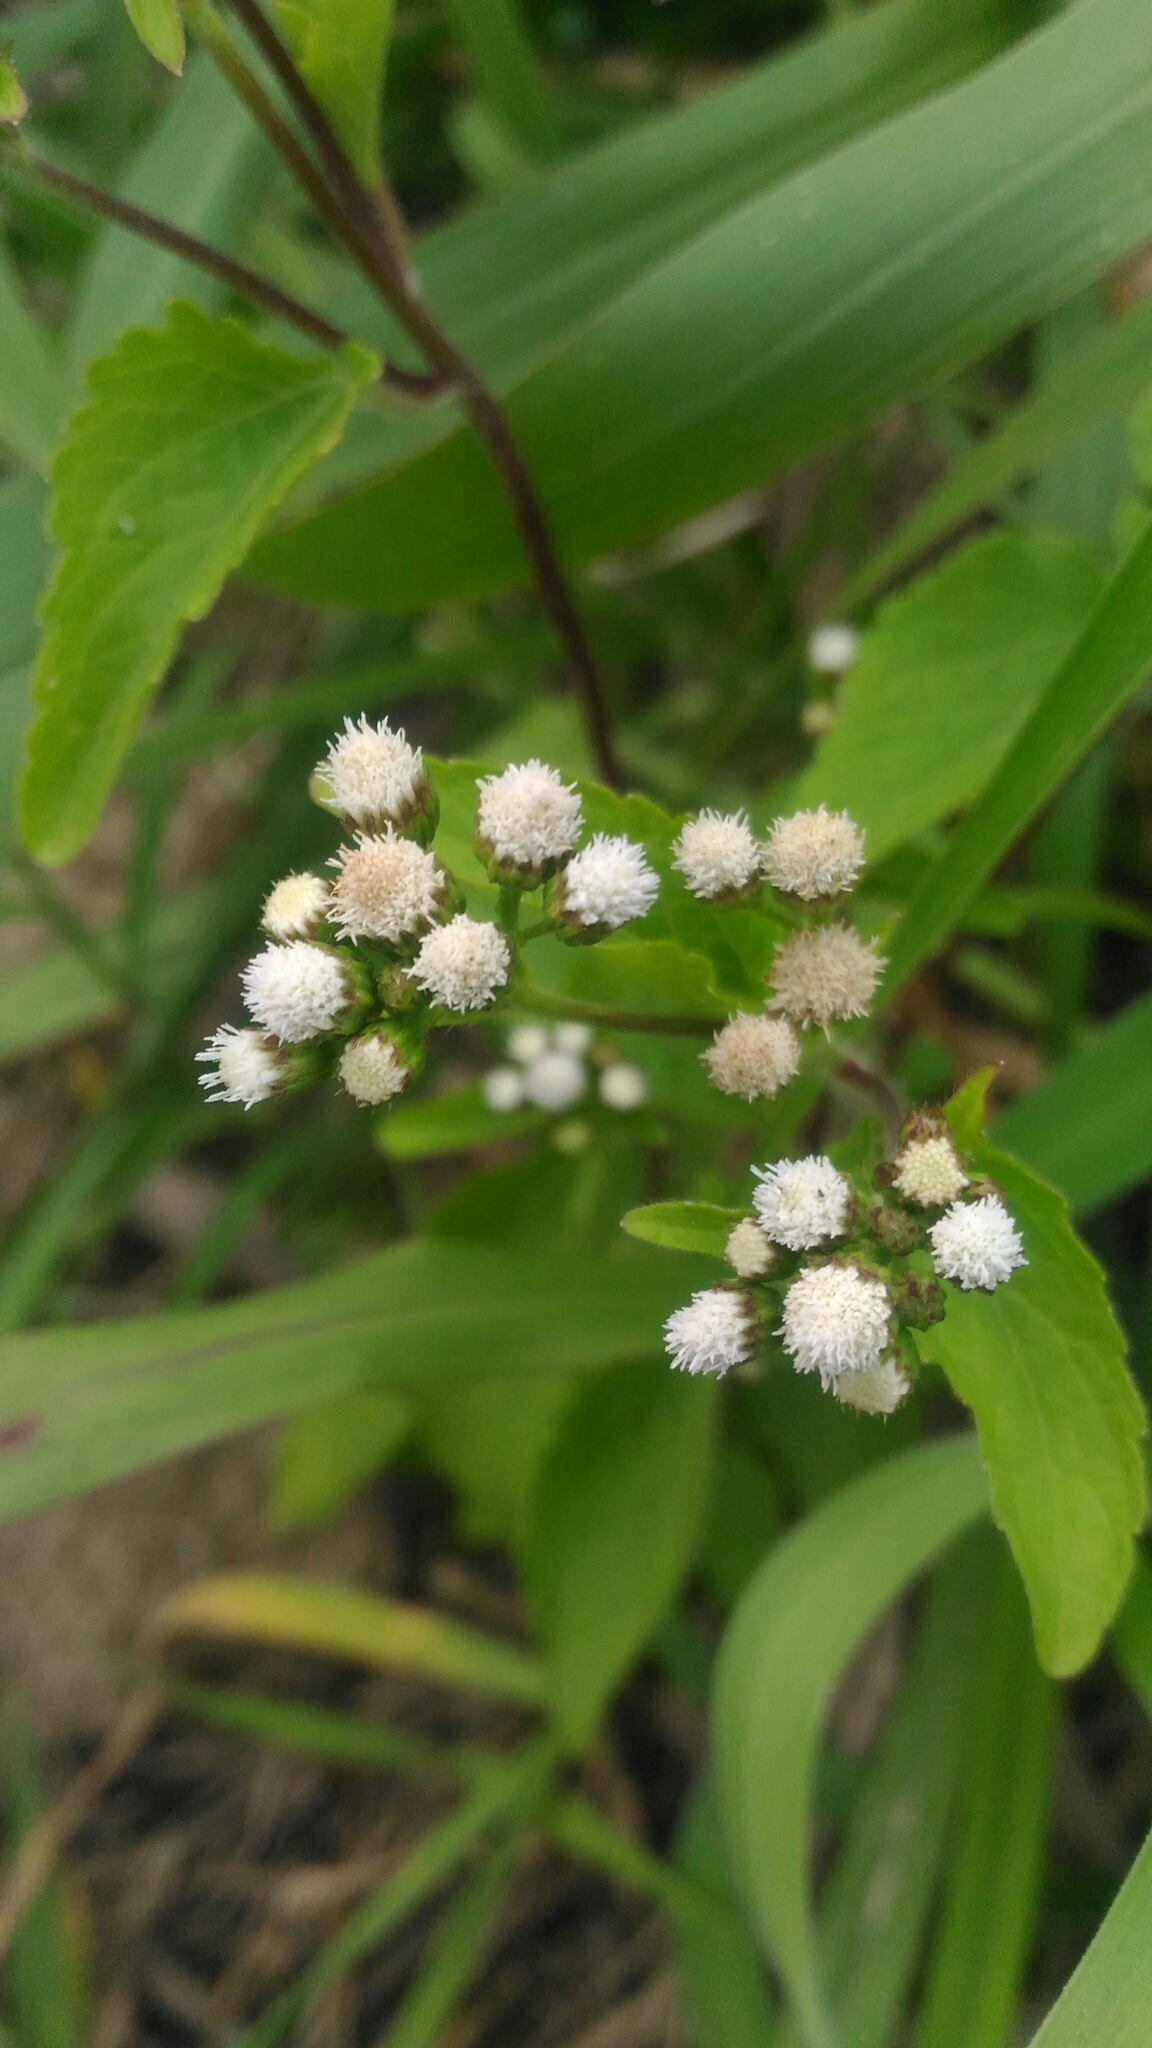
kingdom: Plantae
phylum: Tracheophyta
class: Magnoliopsida
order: Asterales
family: Asteraceae
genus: Ageratum
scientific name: Ageratum conyzoides
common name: Tropical whiteweed
